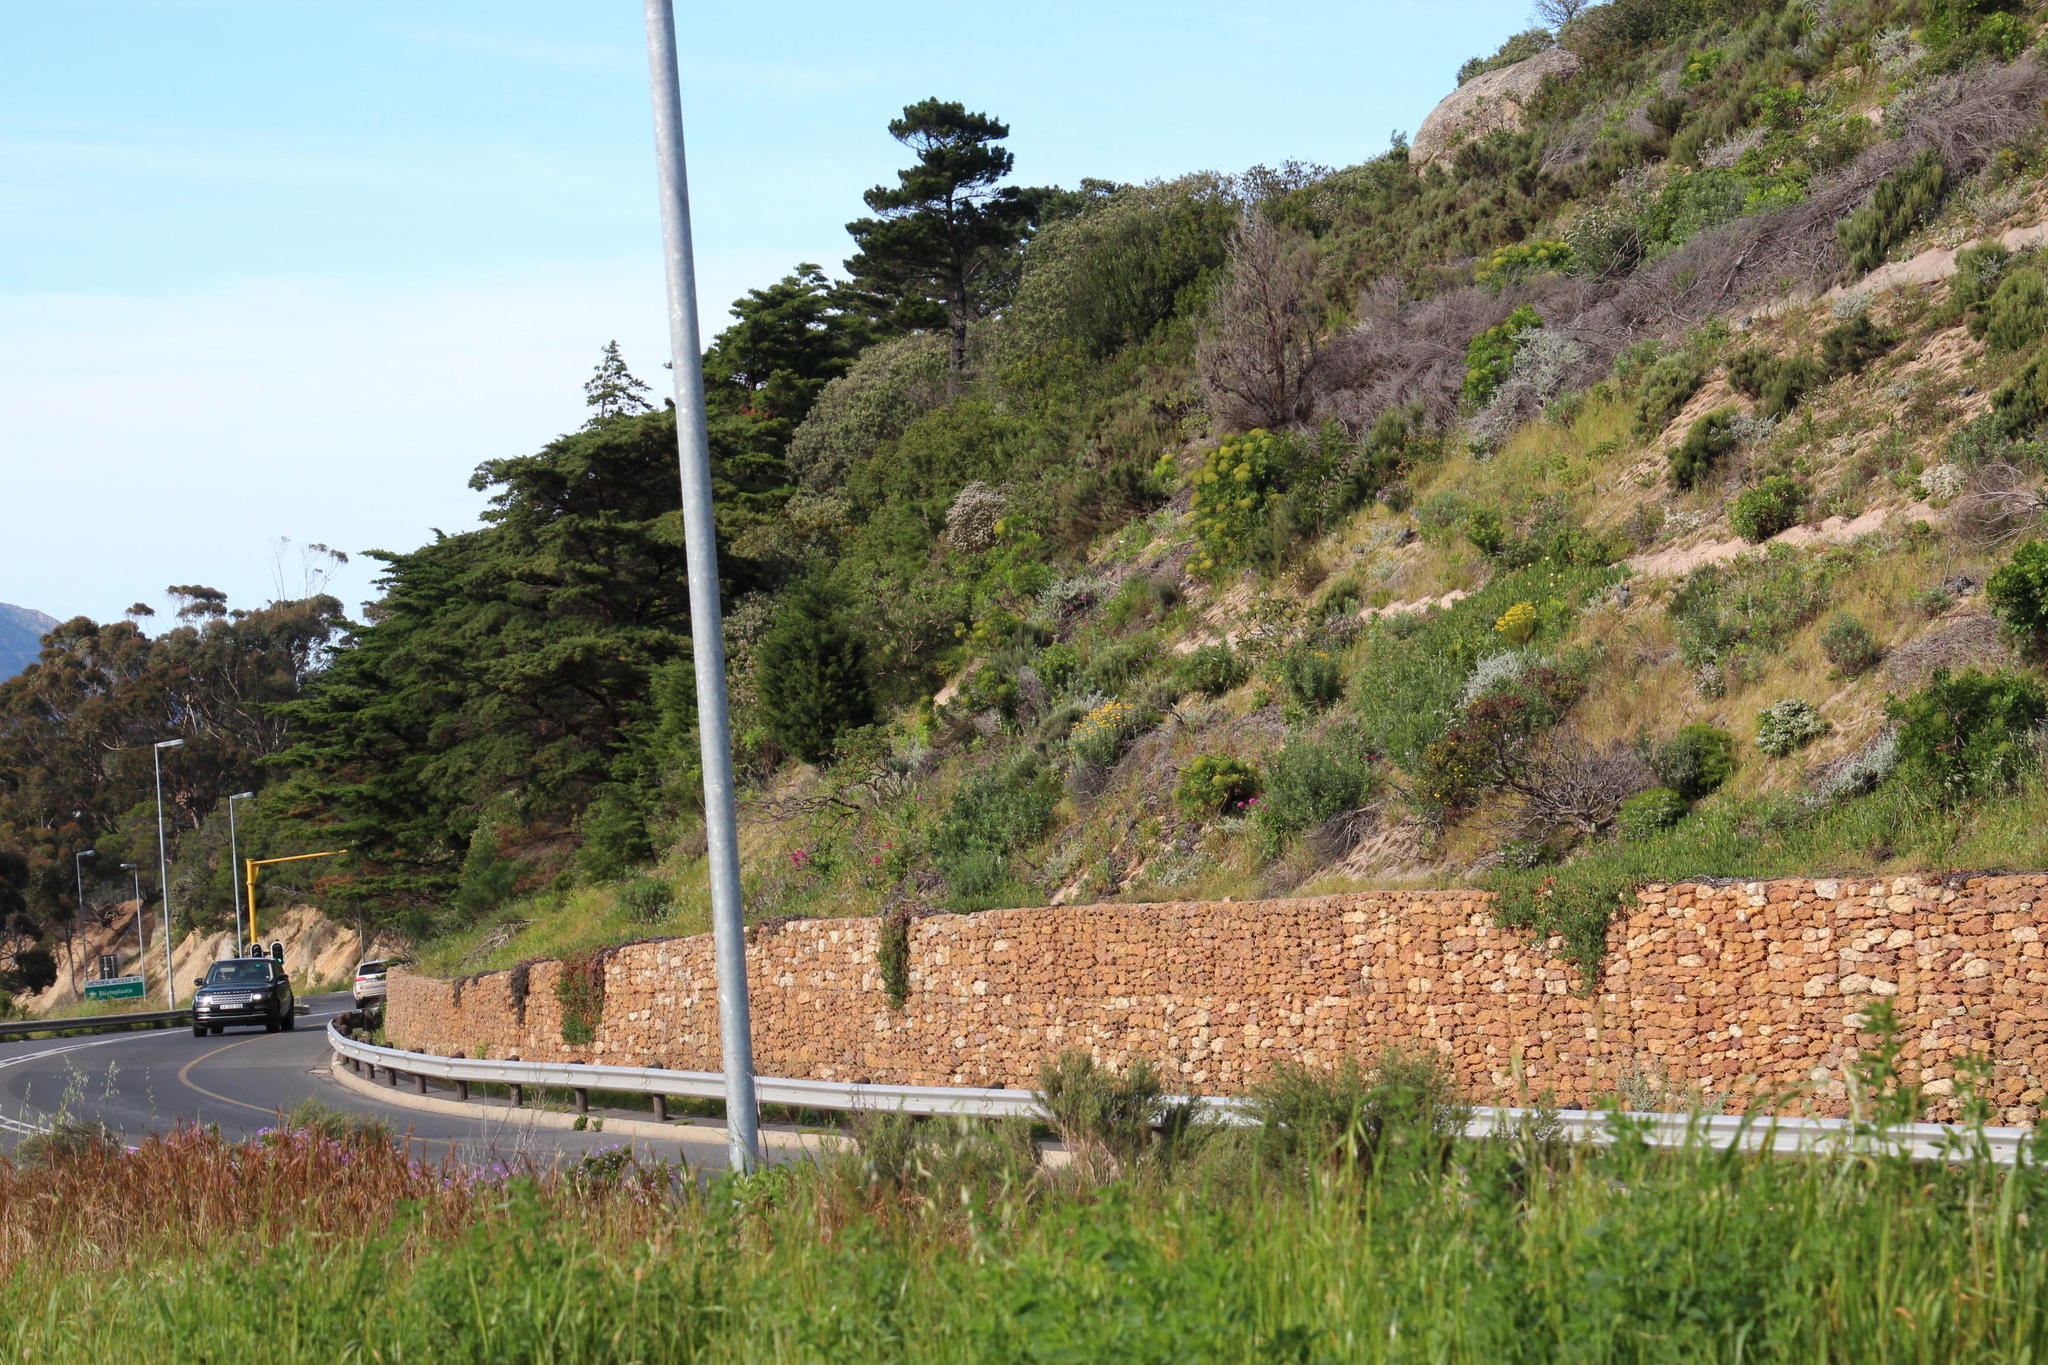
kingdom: Plantae
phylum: Tracheophyta
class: Magnoliopsida
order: Dipsacales
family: Caprifoliaceae
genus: Centranthus
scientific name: Centranthus ruber
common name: Red valerian
